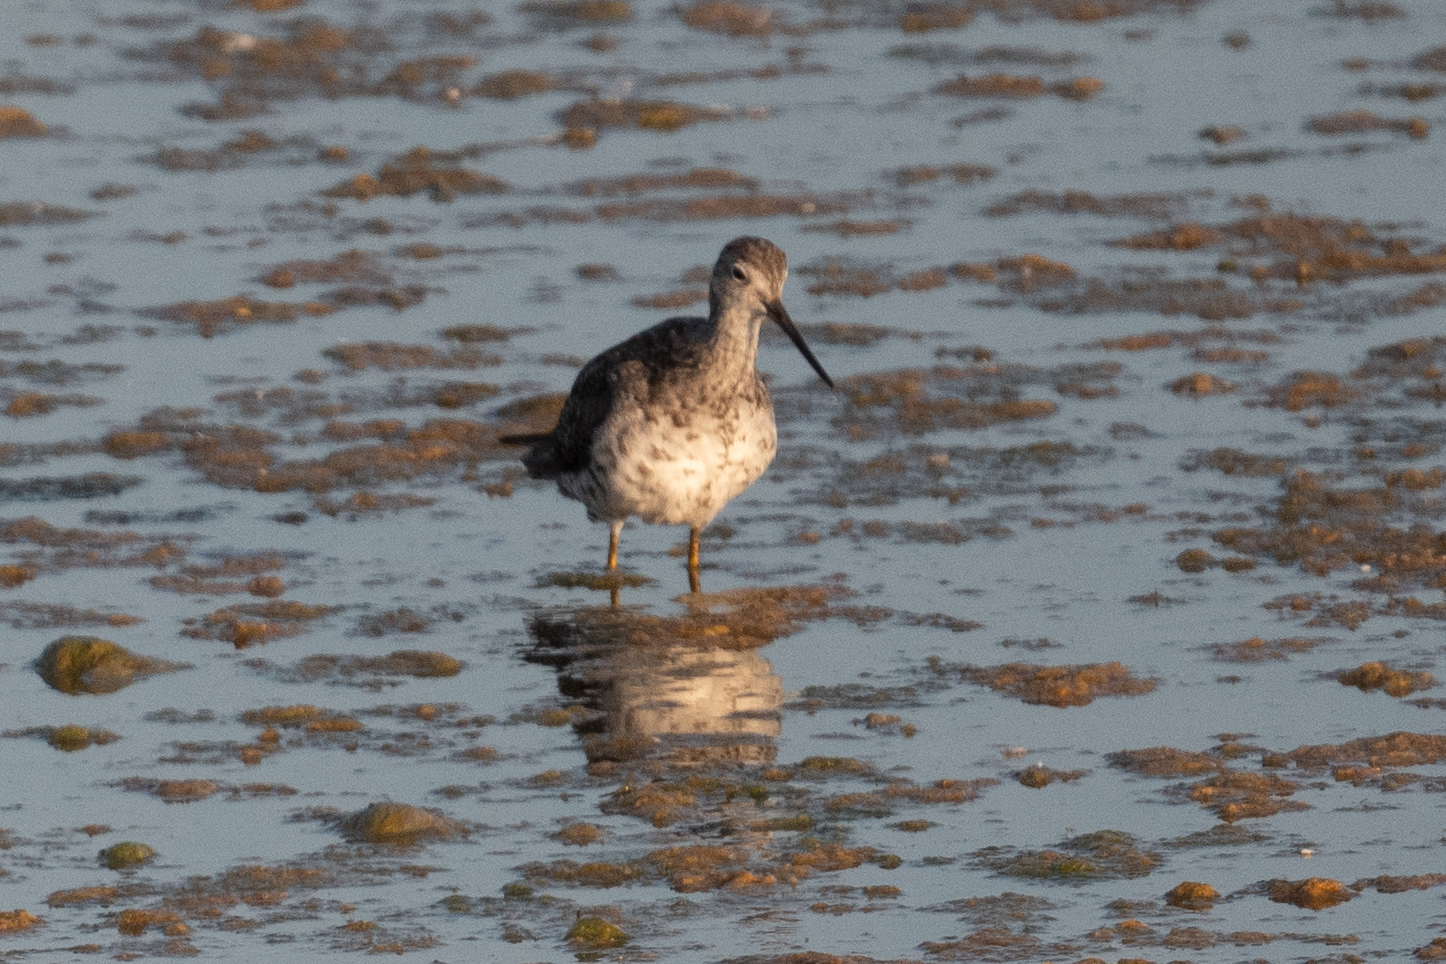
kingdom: Animalia
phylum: Chordata
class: Aves
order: Charadriiformes
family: Scolopacidae
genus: Tringa
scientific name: Tringa melanoleuca
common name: Greater yellowlegs
